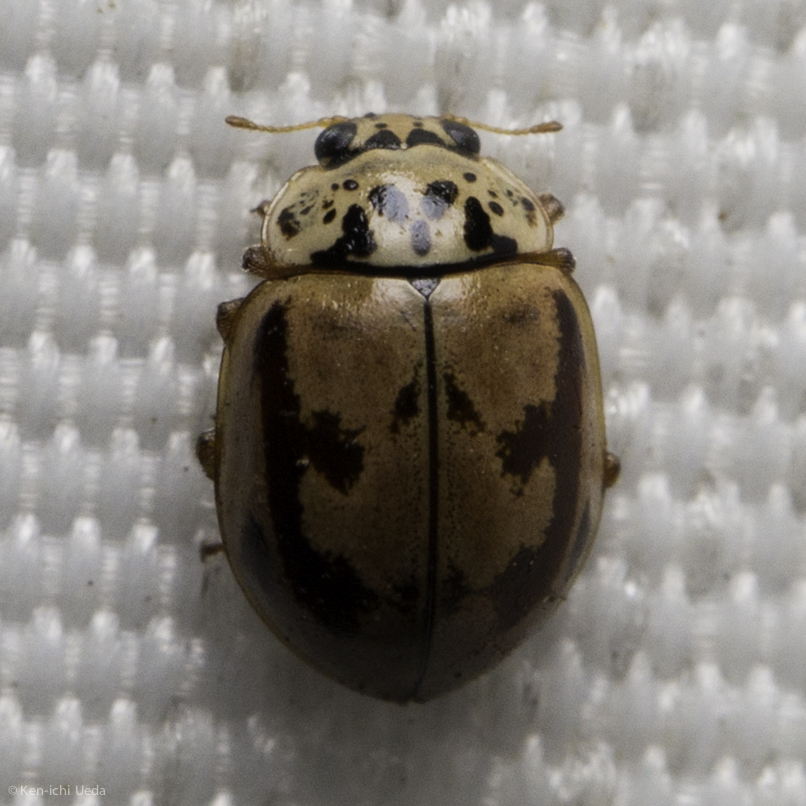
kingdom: Animalia
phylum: Arthropoda
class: Insecta
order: Coleoptera
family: Coccinellidae
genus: Mulsantina
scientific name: Mulsantina picta
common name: Painted ladybird
